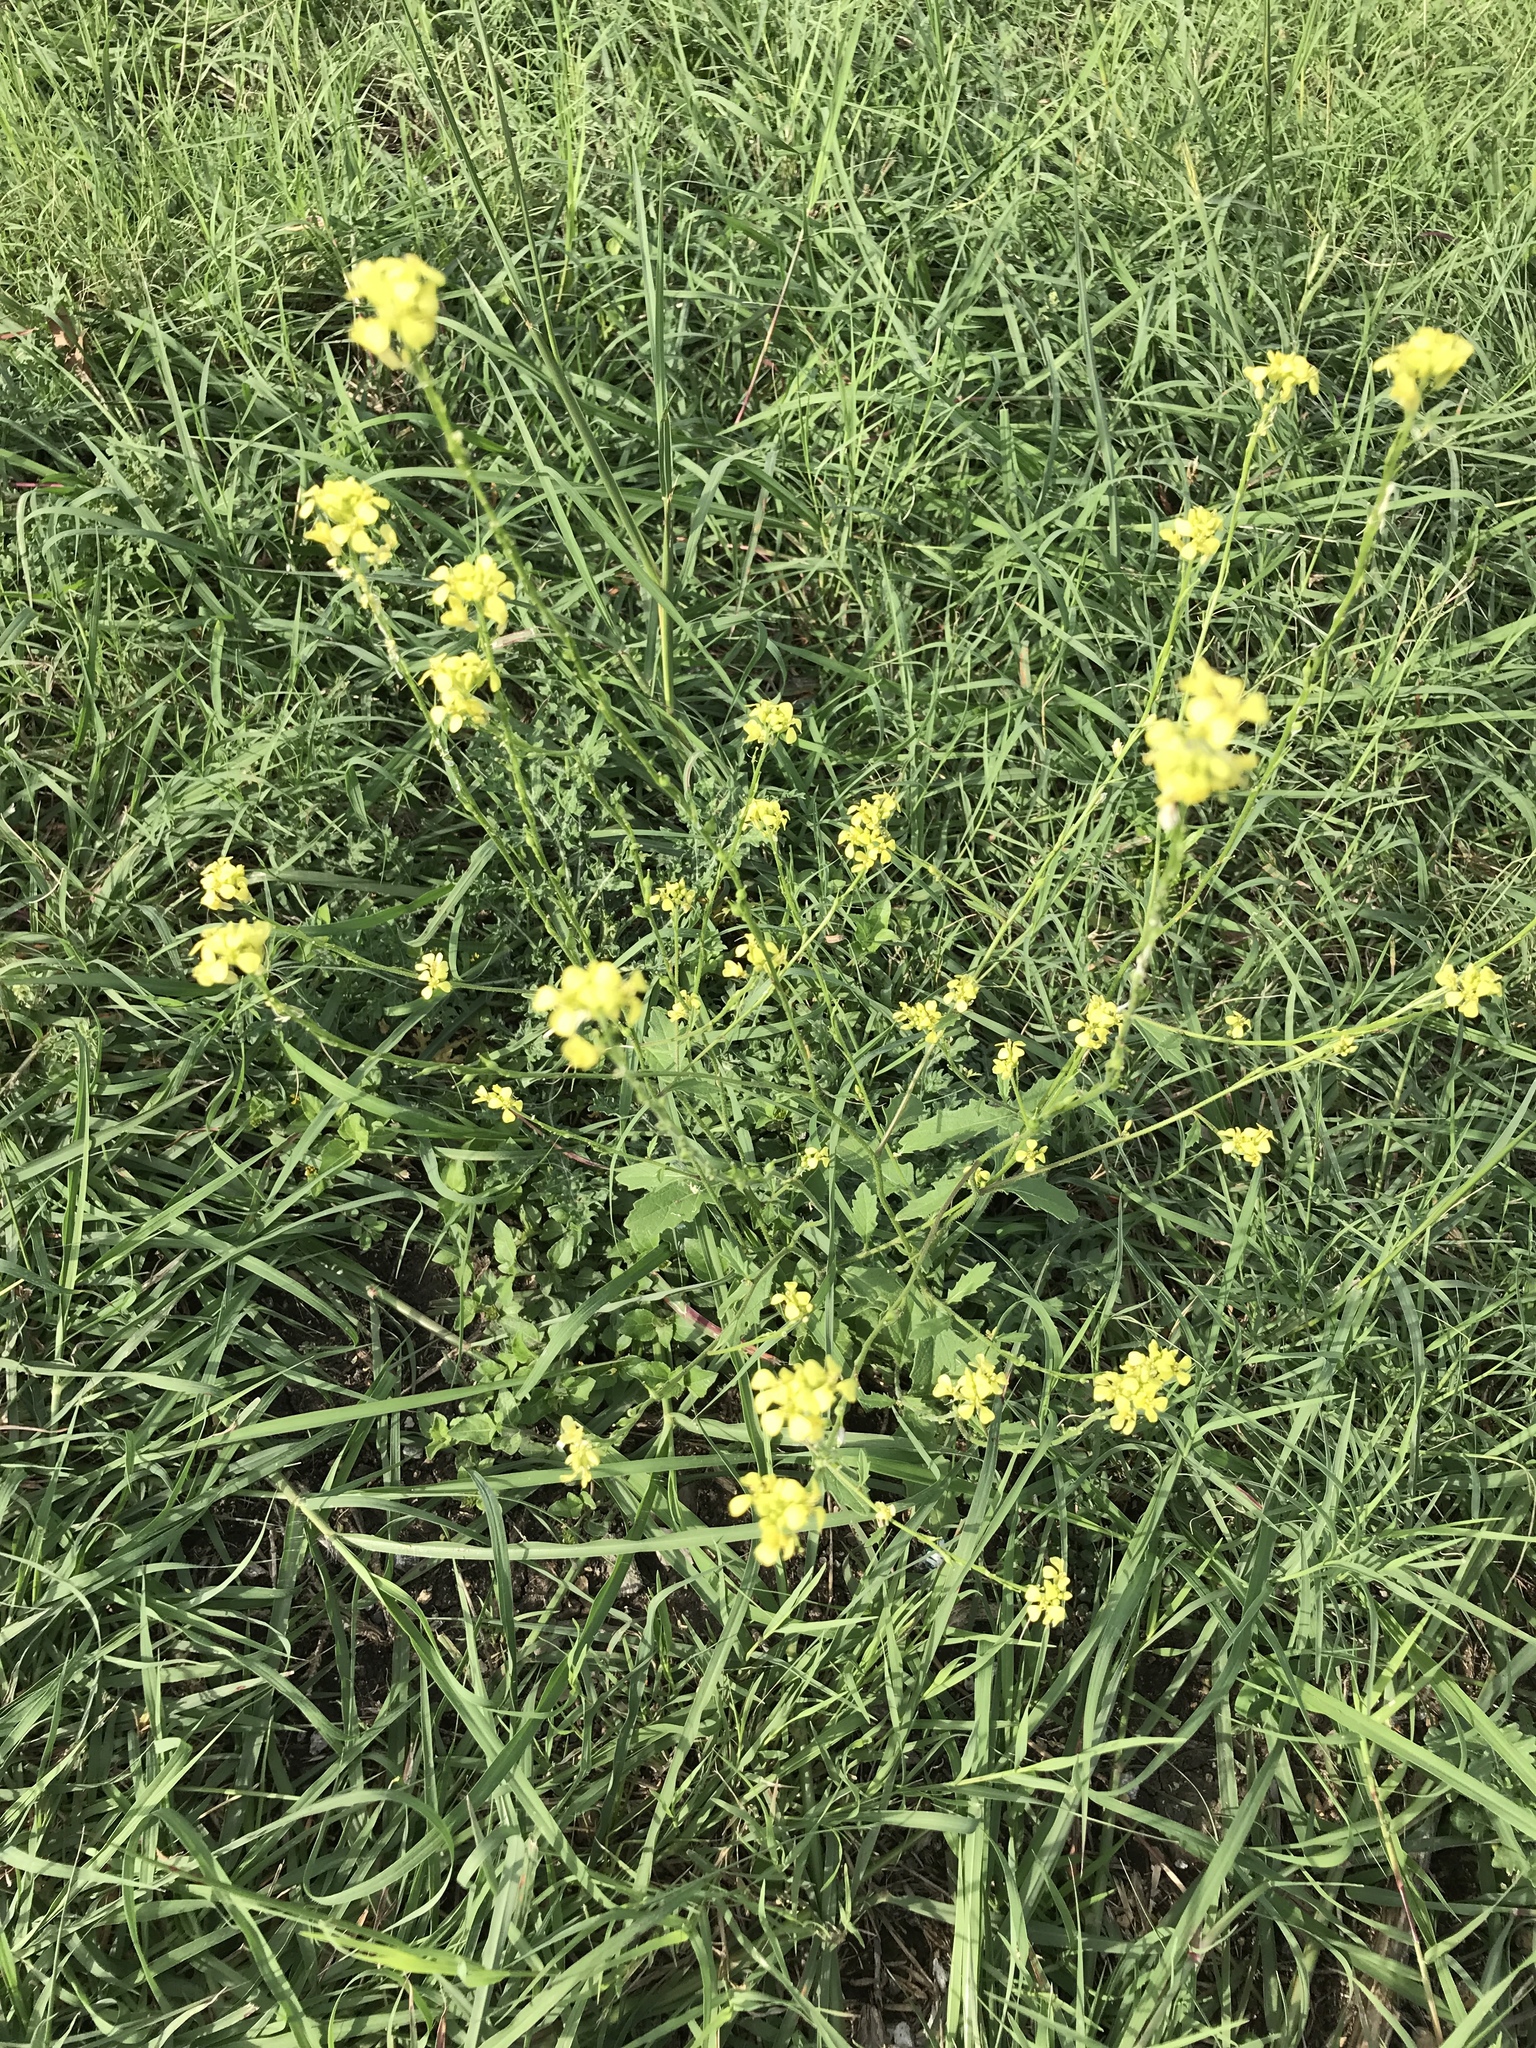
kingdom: Plantae
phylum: Tracheophyta
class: Magnoliopsida
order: Brassicales
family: Brassicaceae
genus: Rapistrum
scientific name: Rapistrum rugosum
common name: Annual bastardcabbage
